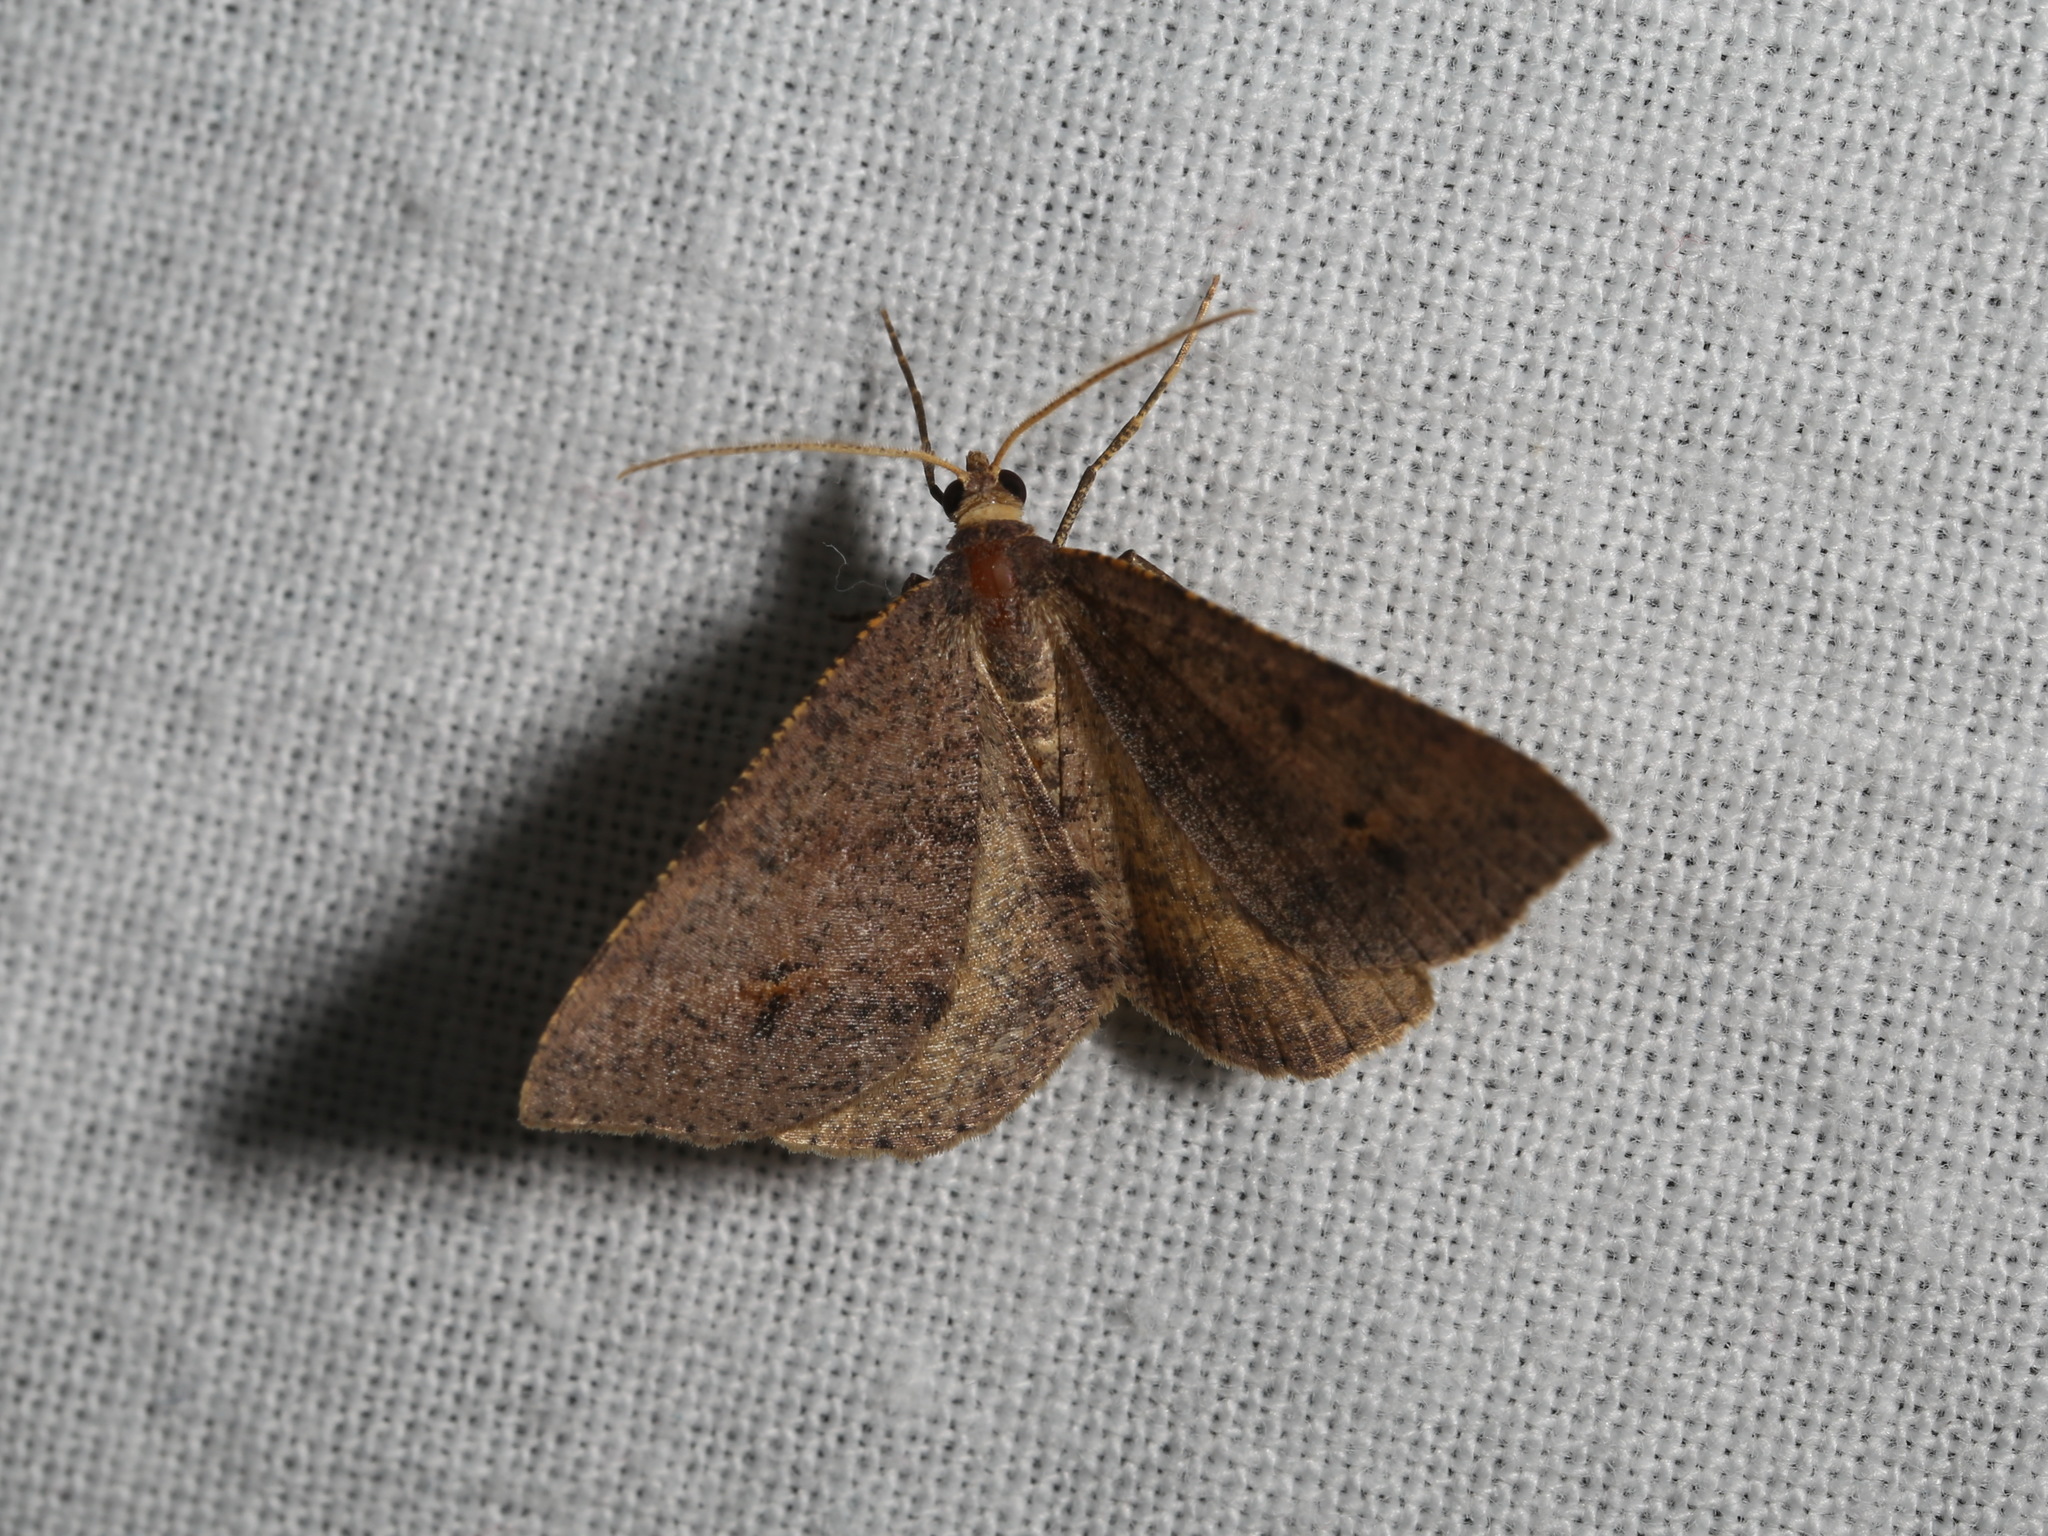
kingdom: Animalia
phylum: Arthropoda
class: Insecta
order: Lepidoptera
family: Geometridae
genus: Parosteodes
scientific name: Parosteodes fictiliaria
